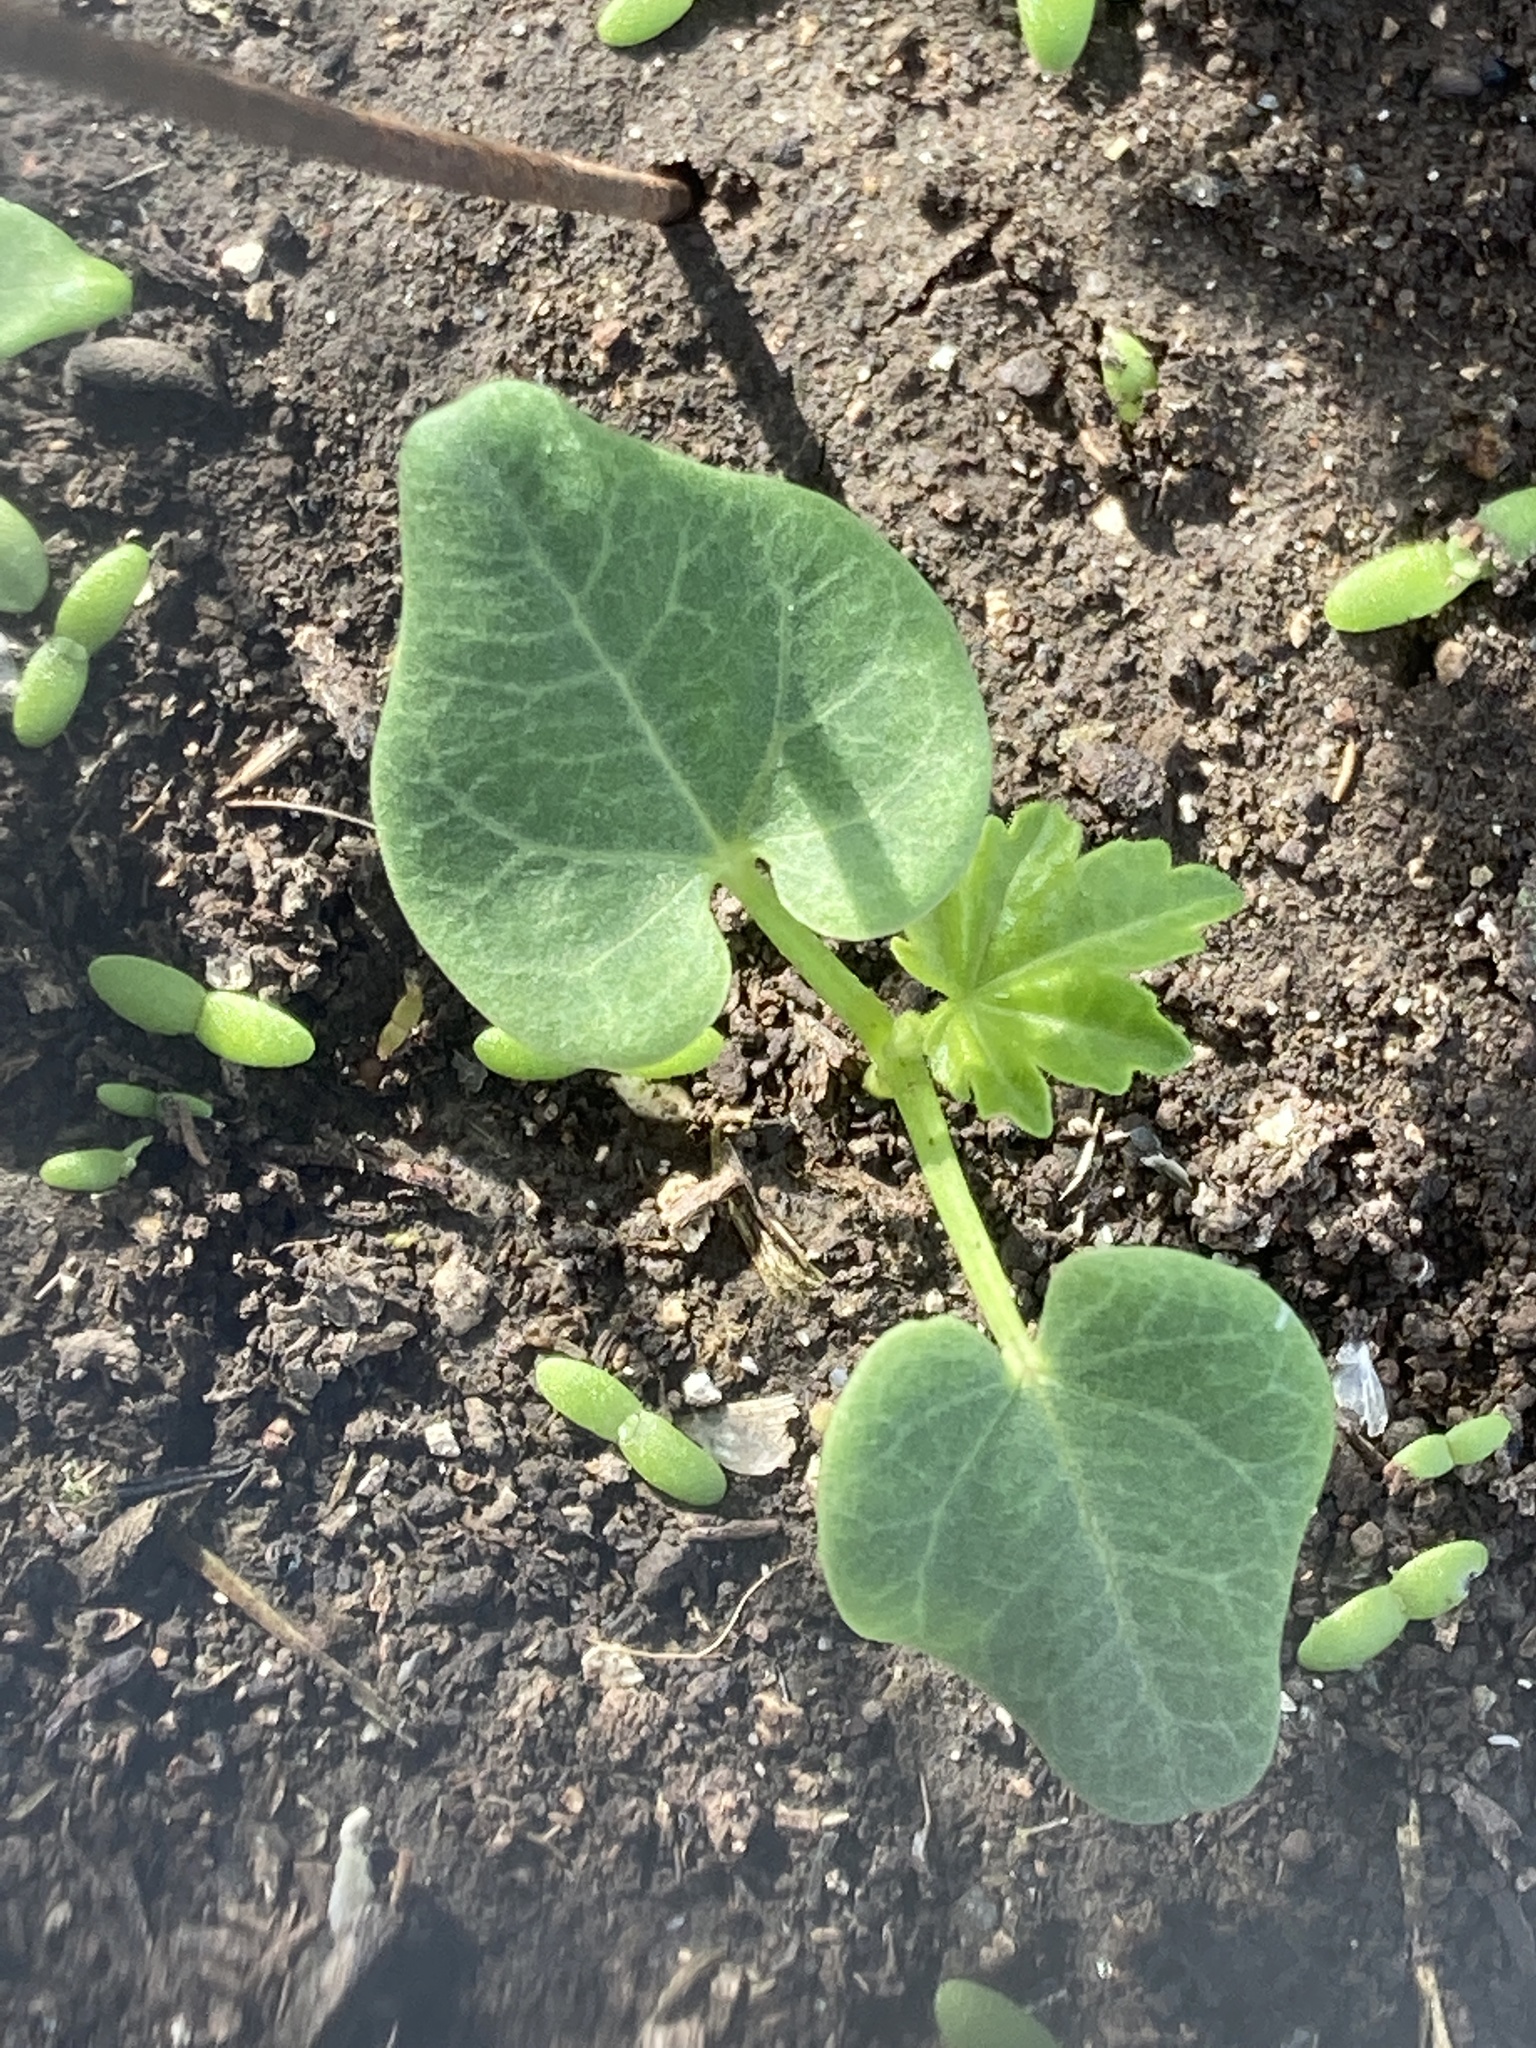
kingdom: Plantae
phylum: Tracheophyta
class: Magnoliopsida
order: Malvales
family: Malvaceae
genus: Malva
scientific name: Malva assurgentiflora
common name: Island mallow
